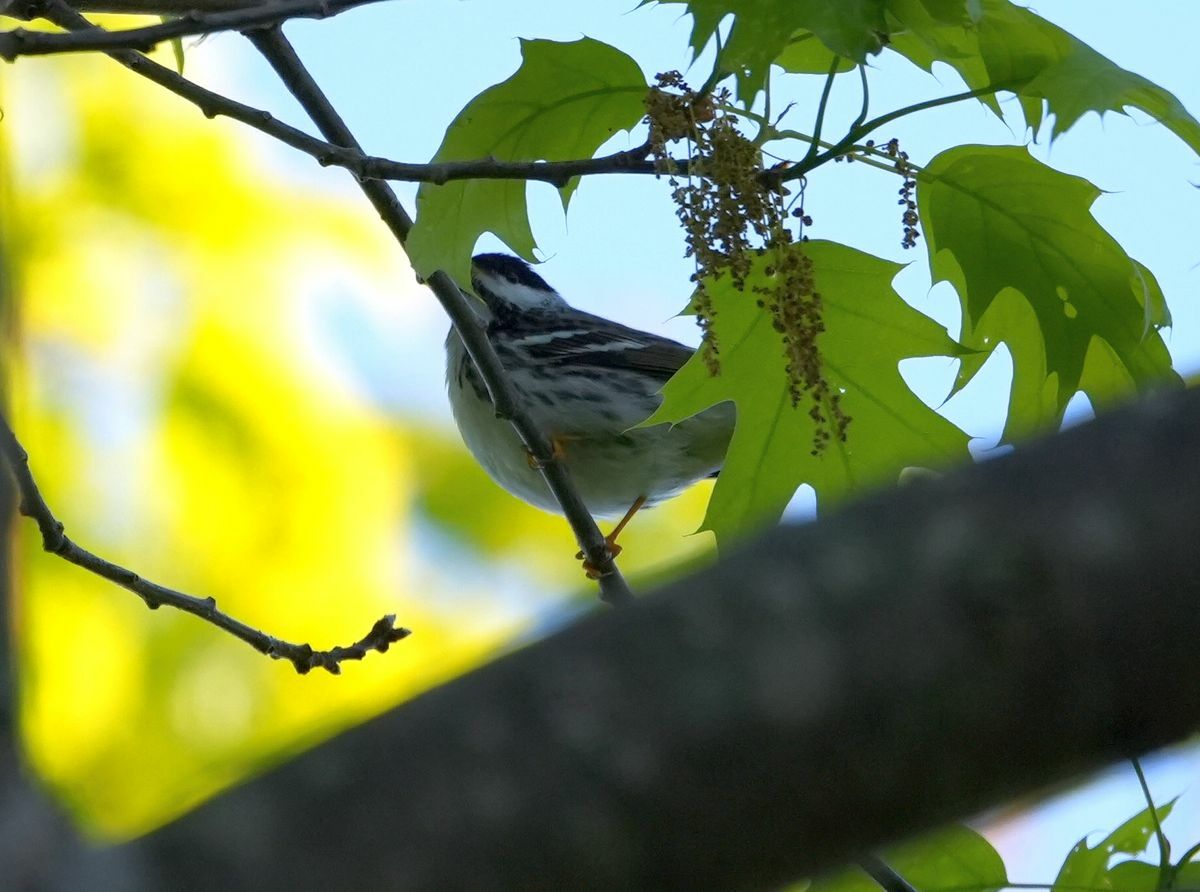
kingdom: Animalia
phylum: Chordata
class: Aves
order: Passeriformes
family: Parulidae
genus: Setophaga
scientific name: Setophaga striata
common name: Blackpoll warbler
